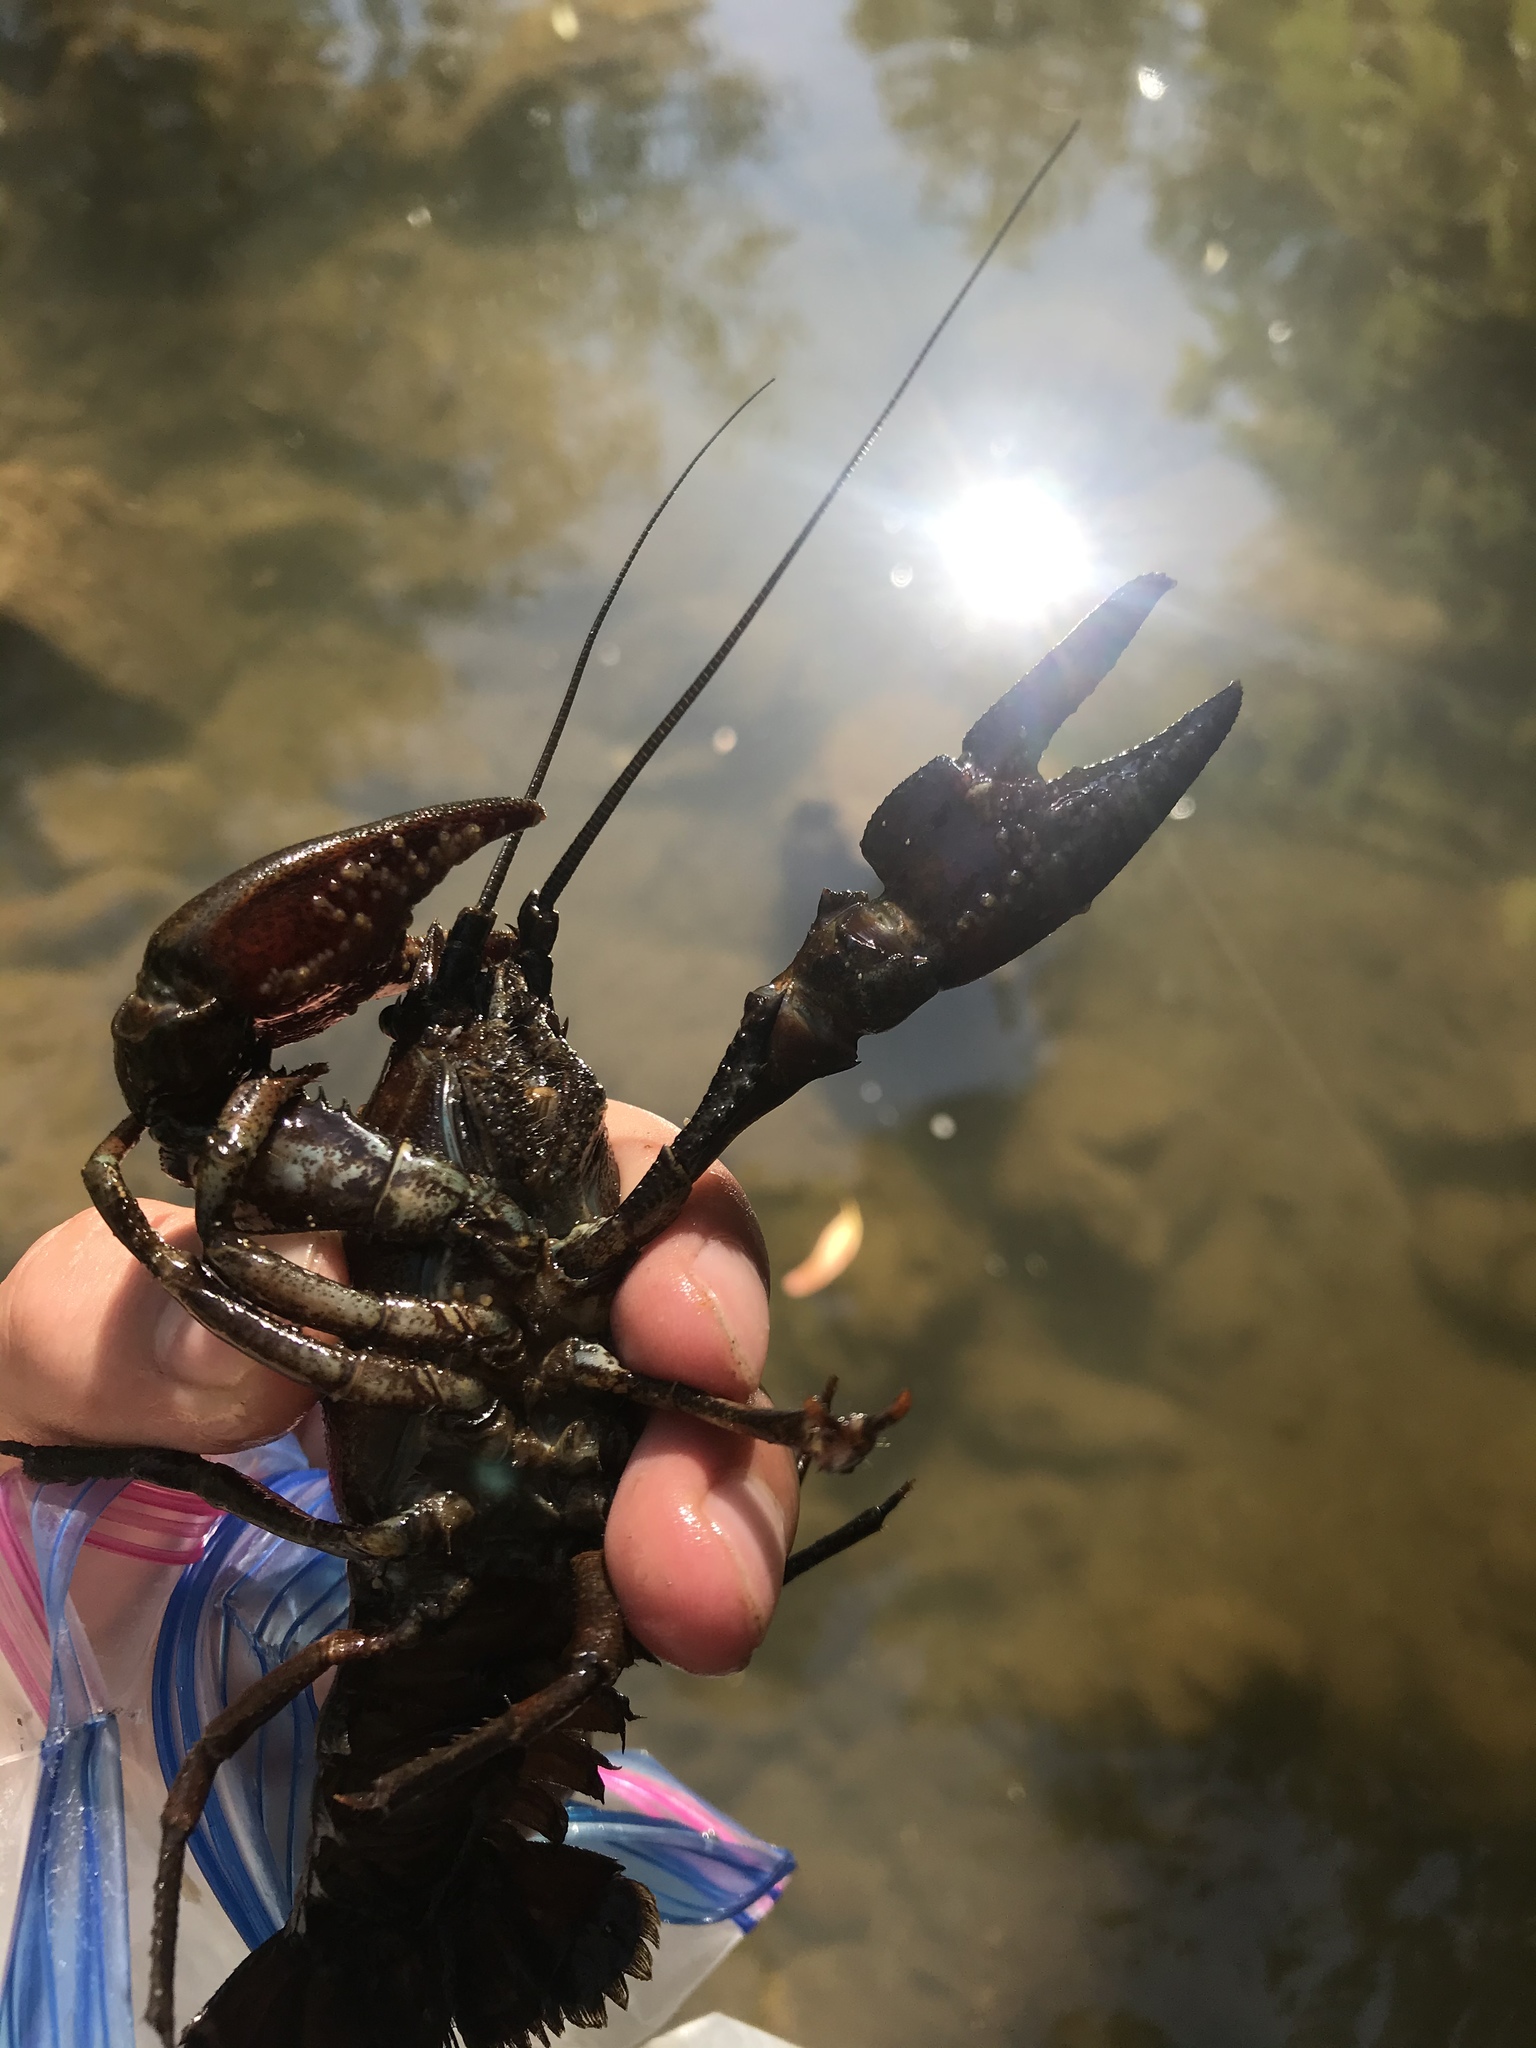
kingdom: Animalia
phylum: Arthropoda
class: Malacostraca
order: Decapoda
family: Astacidae
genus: Pacifastacus
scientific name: Pacifastacus leniusculus
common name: Signal crayfish
